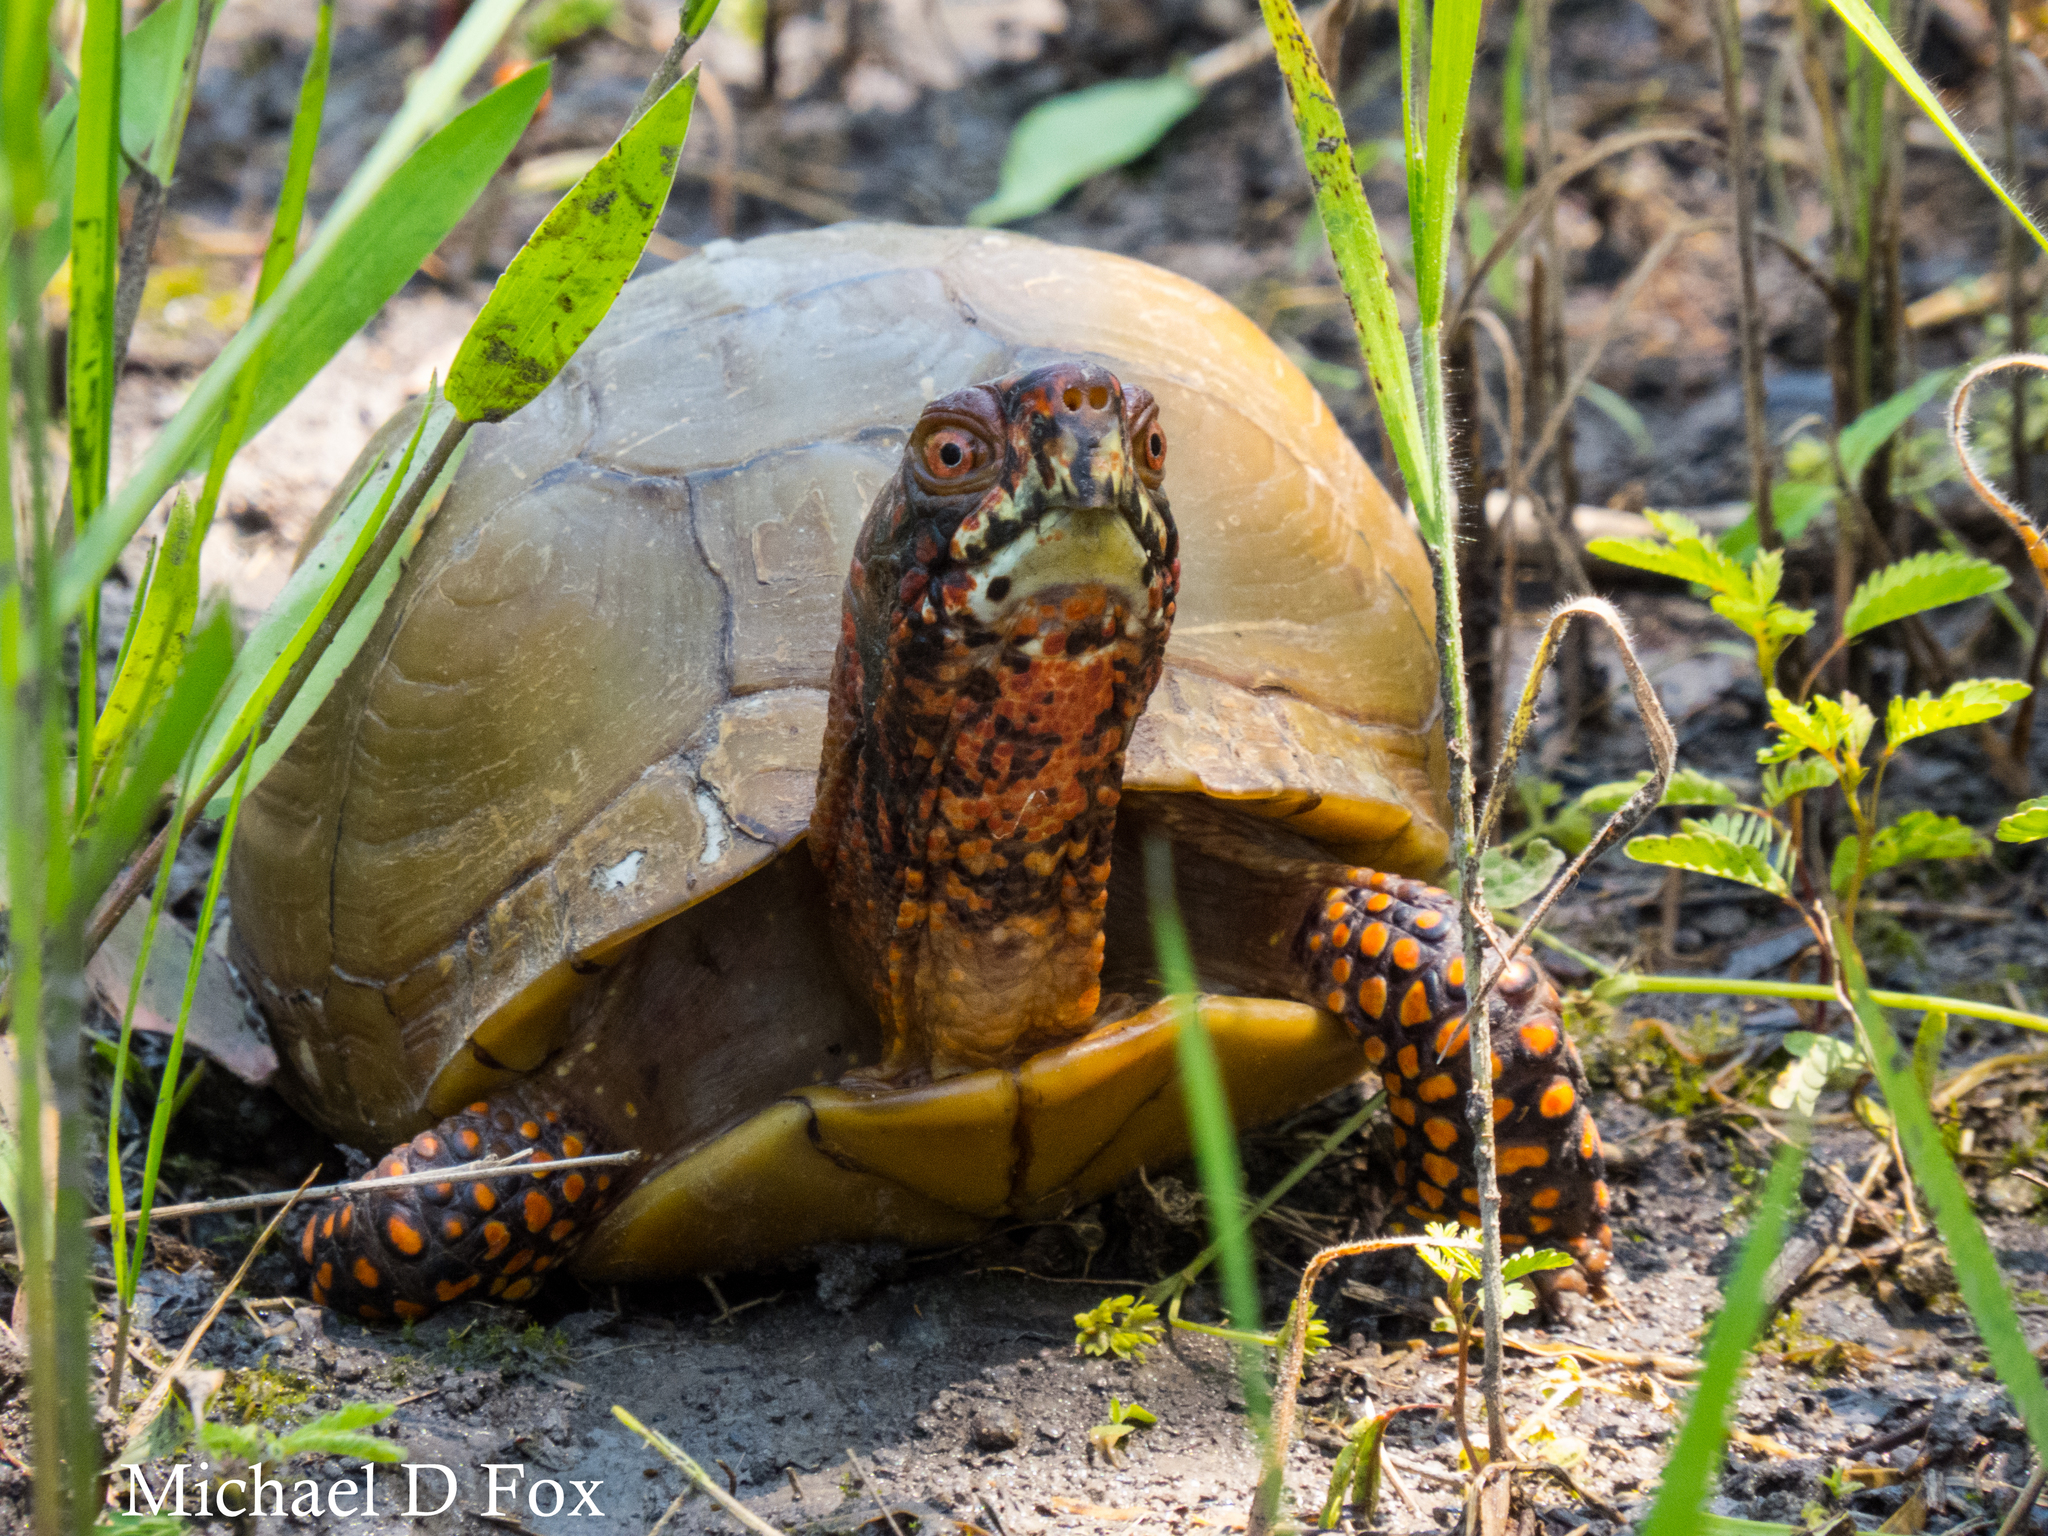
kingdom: Animalia
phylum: Chordata
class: Testudines
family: Emydidae
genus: Terrapene
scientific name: Terrapene carolina
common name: Common box turtle
